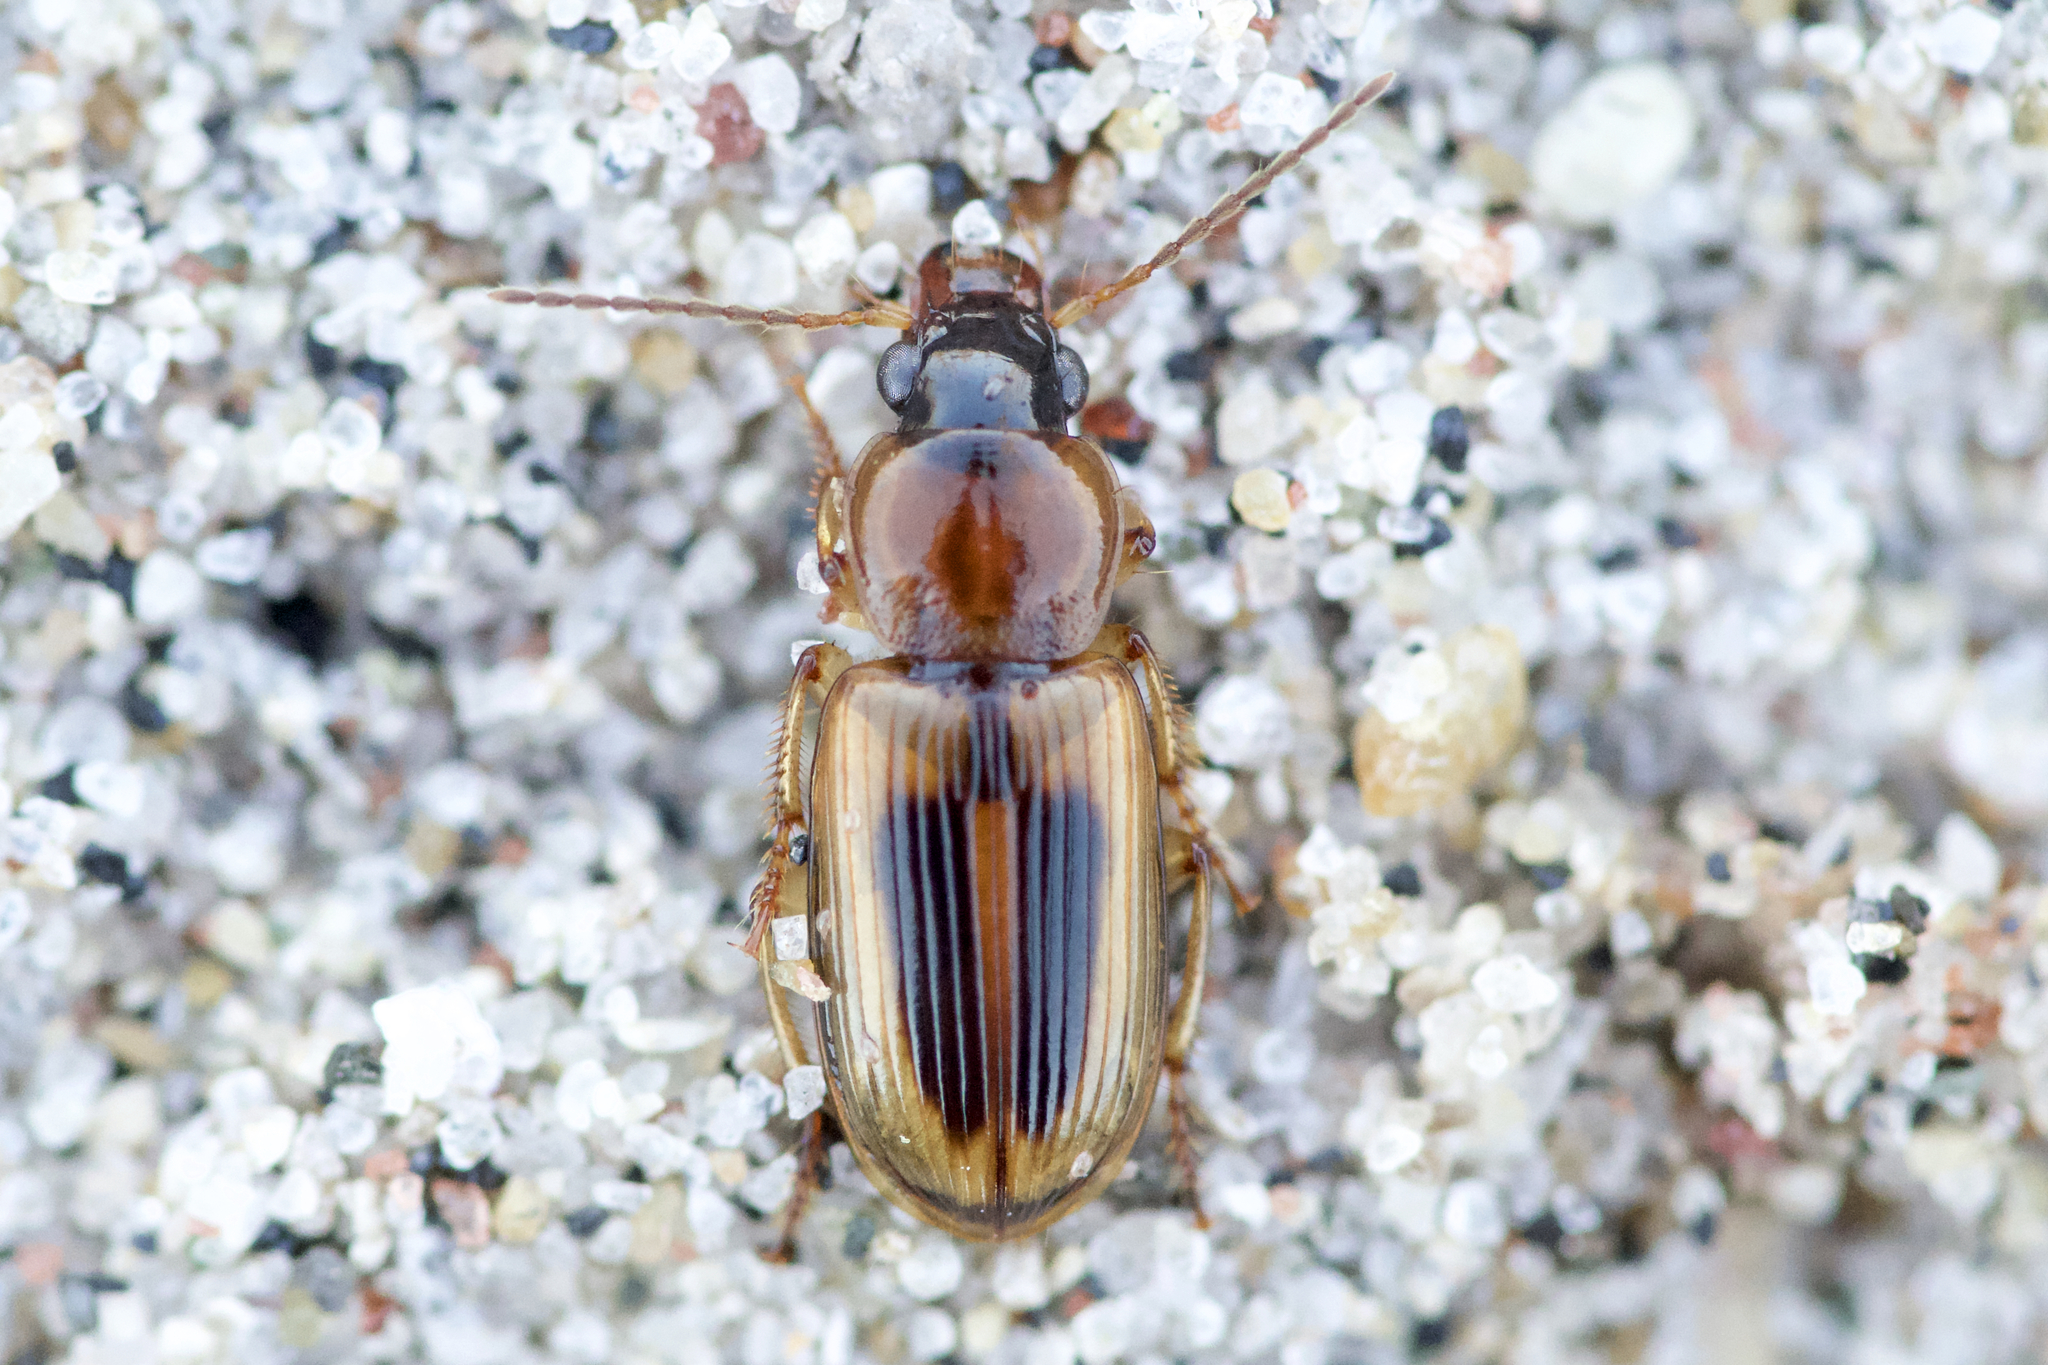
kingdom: Animalia
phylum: Arthropoda
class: Insecta
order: Coleoptera
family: Carabidae
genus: Stenolophus
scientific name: Stenolophus lecontei
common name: Leconte's seedcorn beetle
